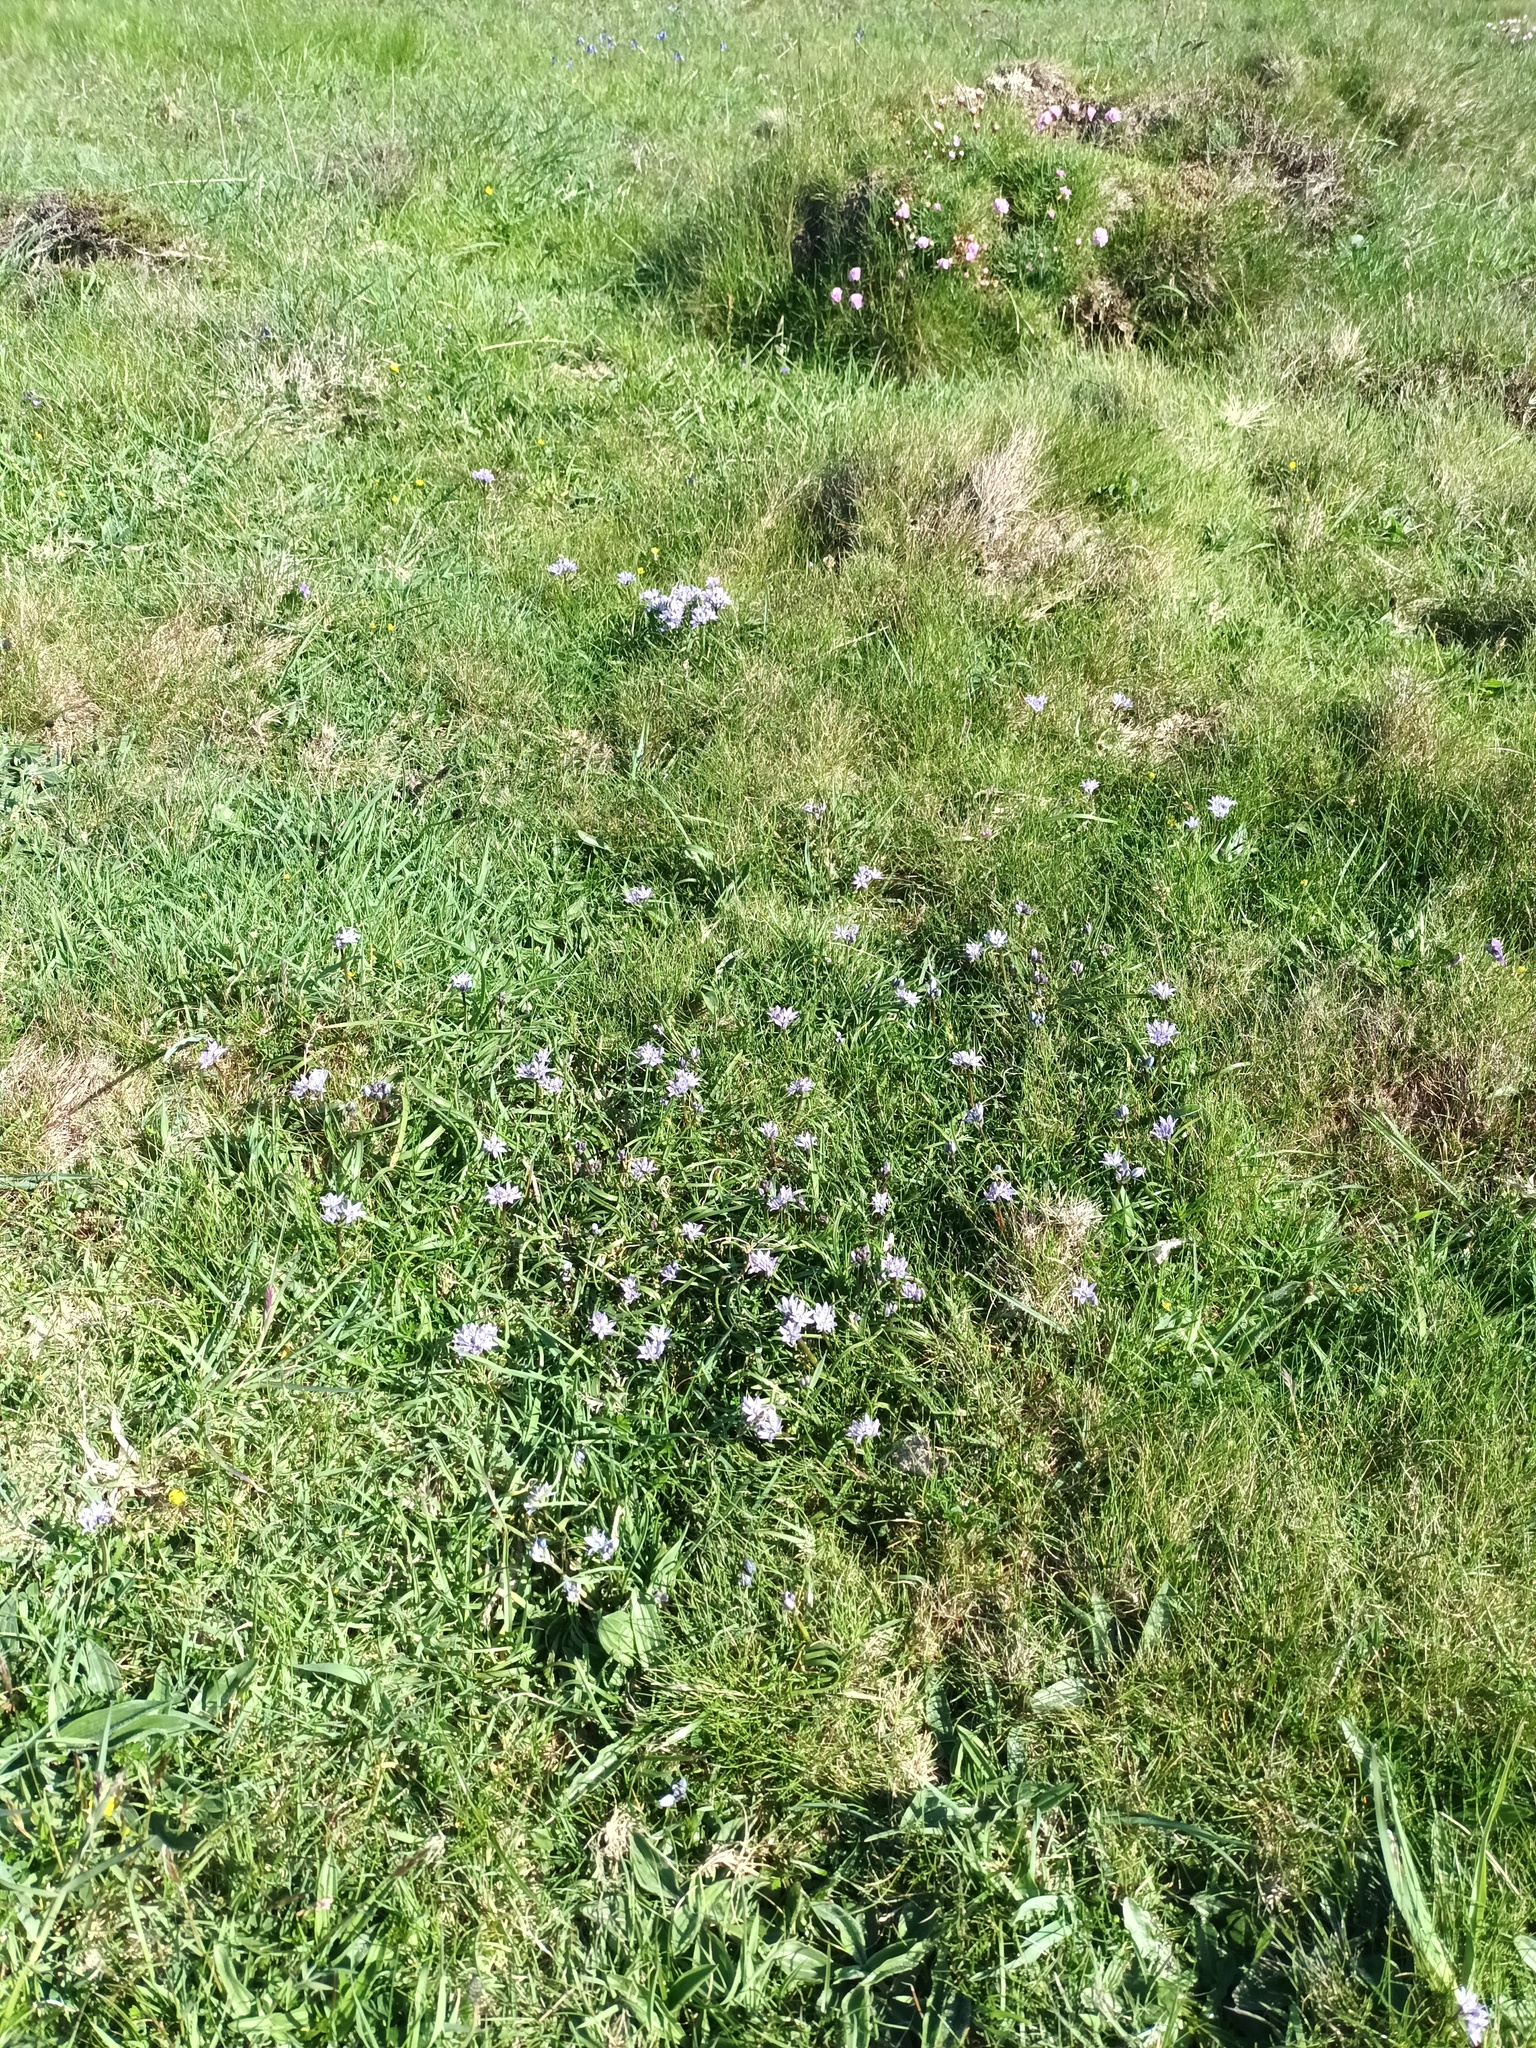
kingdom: Plantae
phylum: Tracheophyta
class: Liliopsida
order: Asparagales
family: Asparagaceae
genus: Scilla
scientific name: Scilla verna
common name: Spring squill
